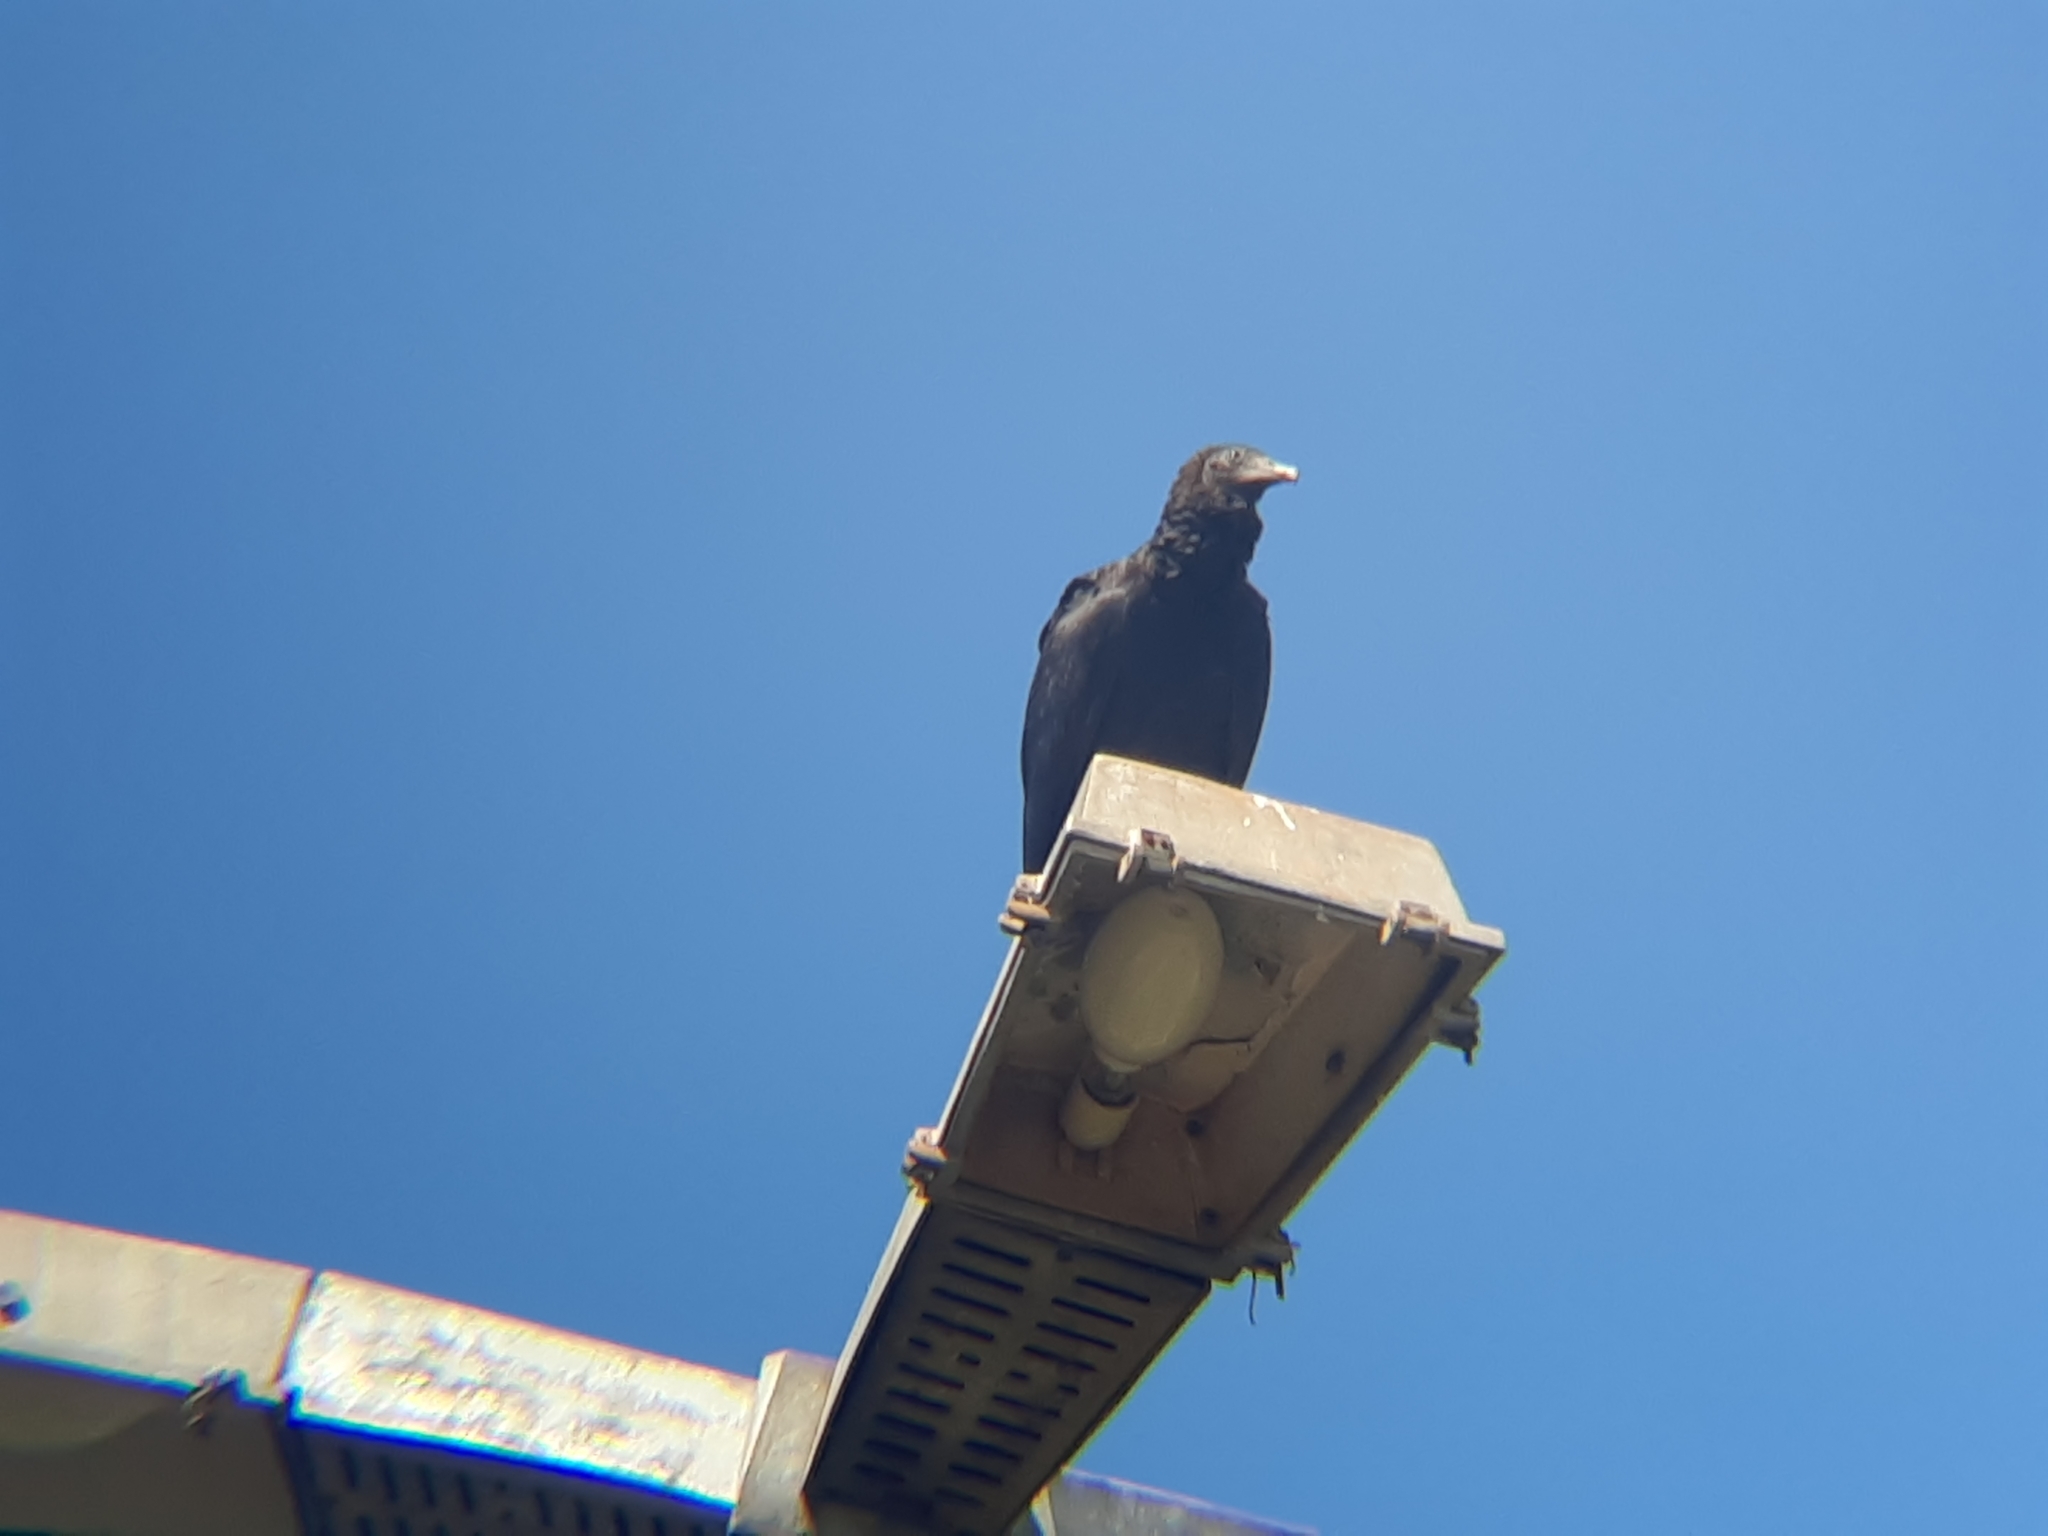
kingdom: Animalia
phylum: Chordata
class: Aves
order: Accipitriformes
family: Cathartidae
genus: Coragyps
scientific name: Coragyps atratus
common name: Black vulture
